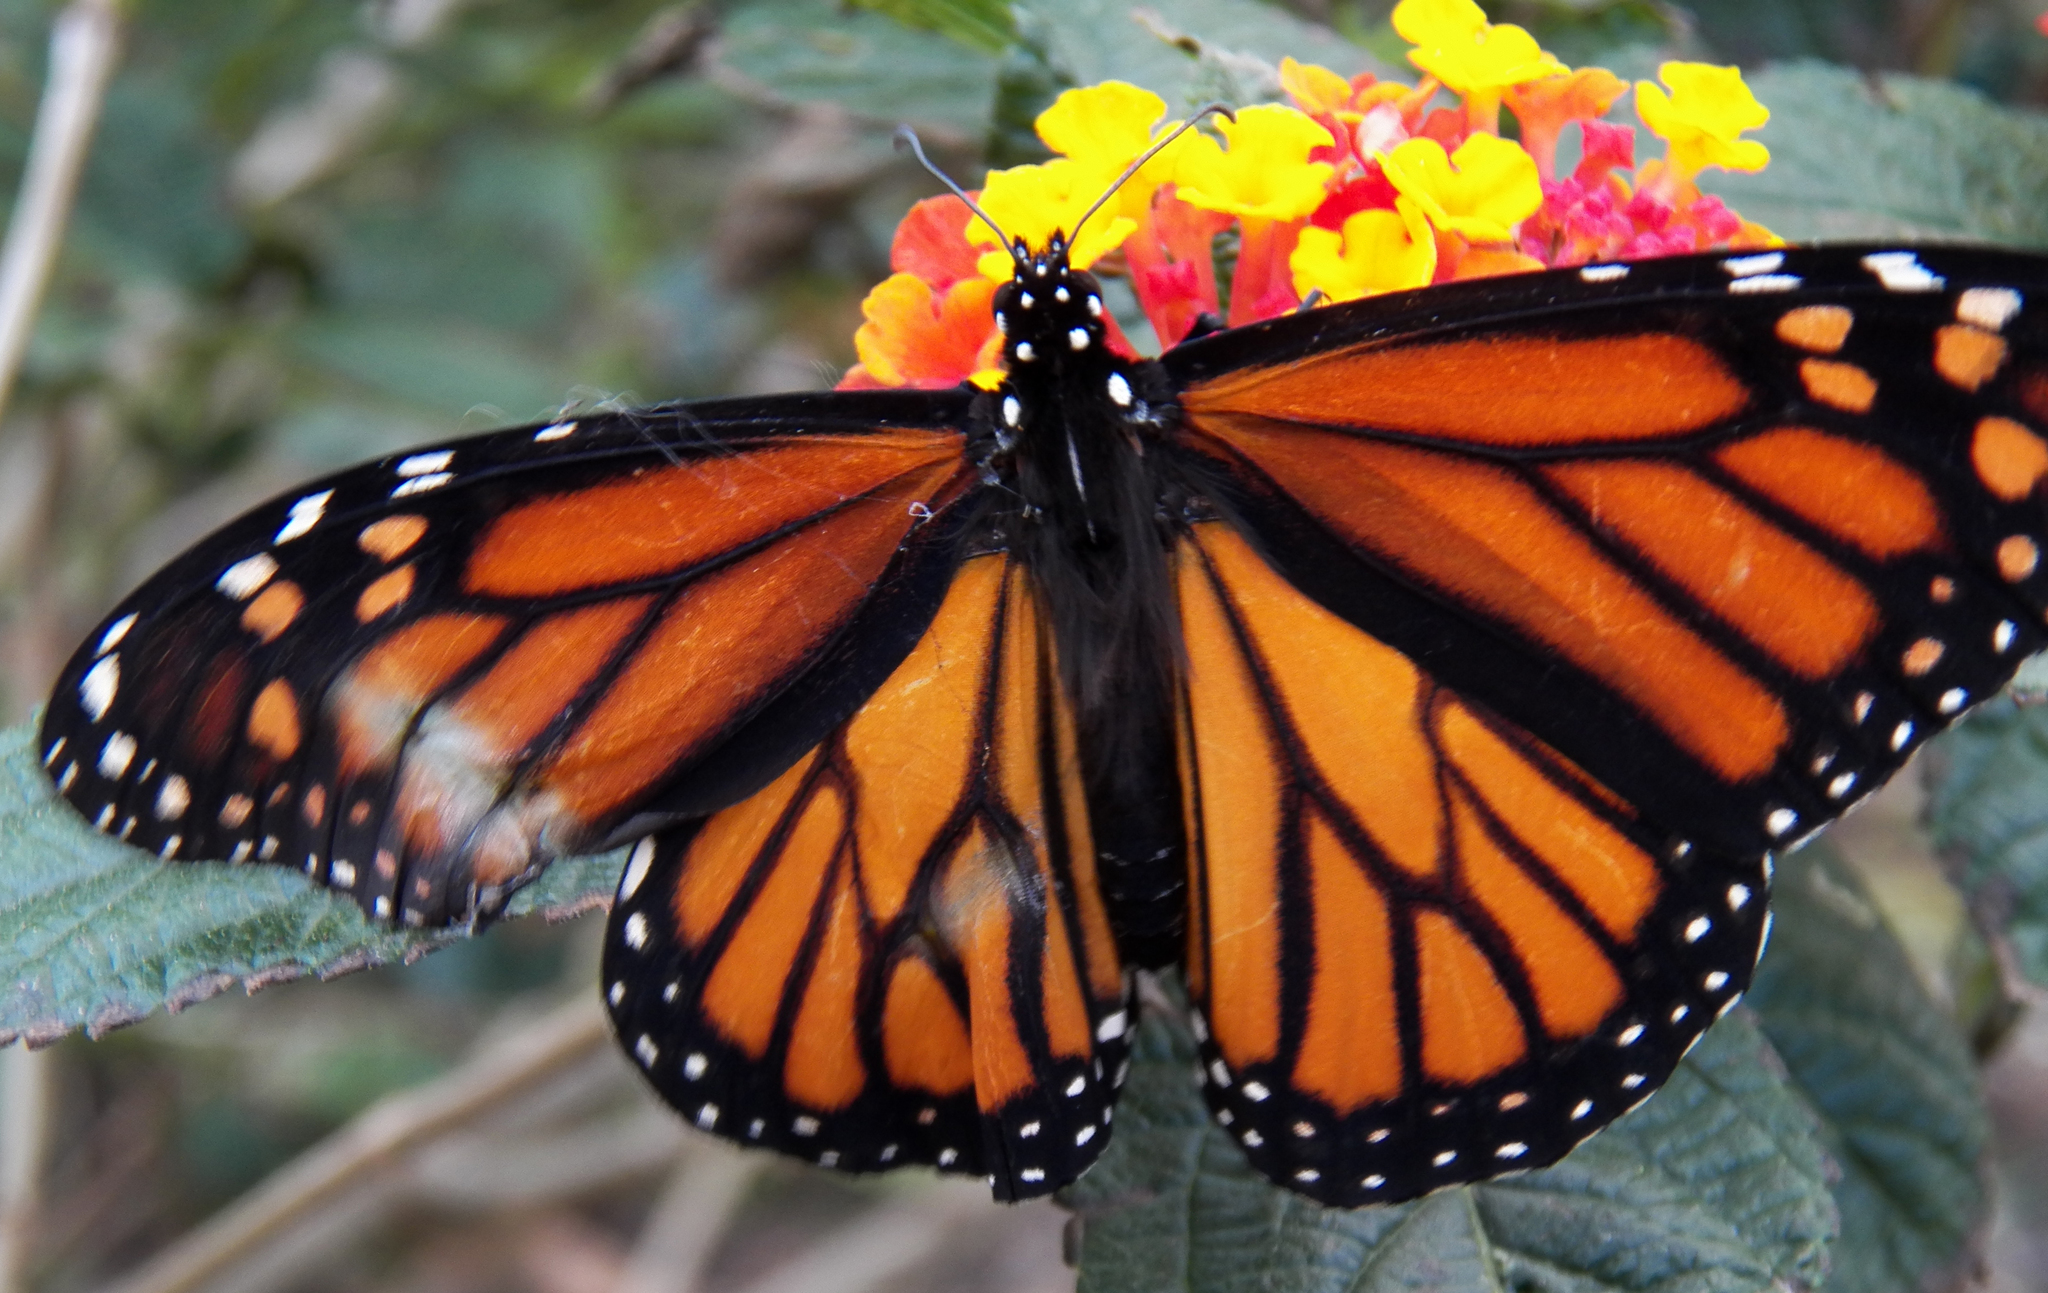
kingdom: Animalia
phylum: Arthropoda
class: Insecta
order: Lepidoptera
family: Nymphalidae
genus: Danaus
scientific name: Danaus plexippus
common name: Monarch
